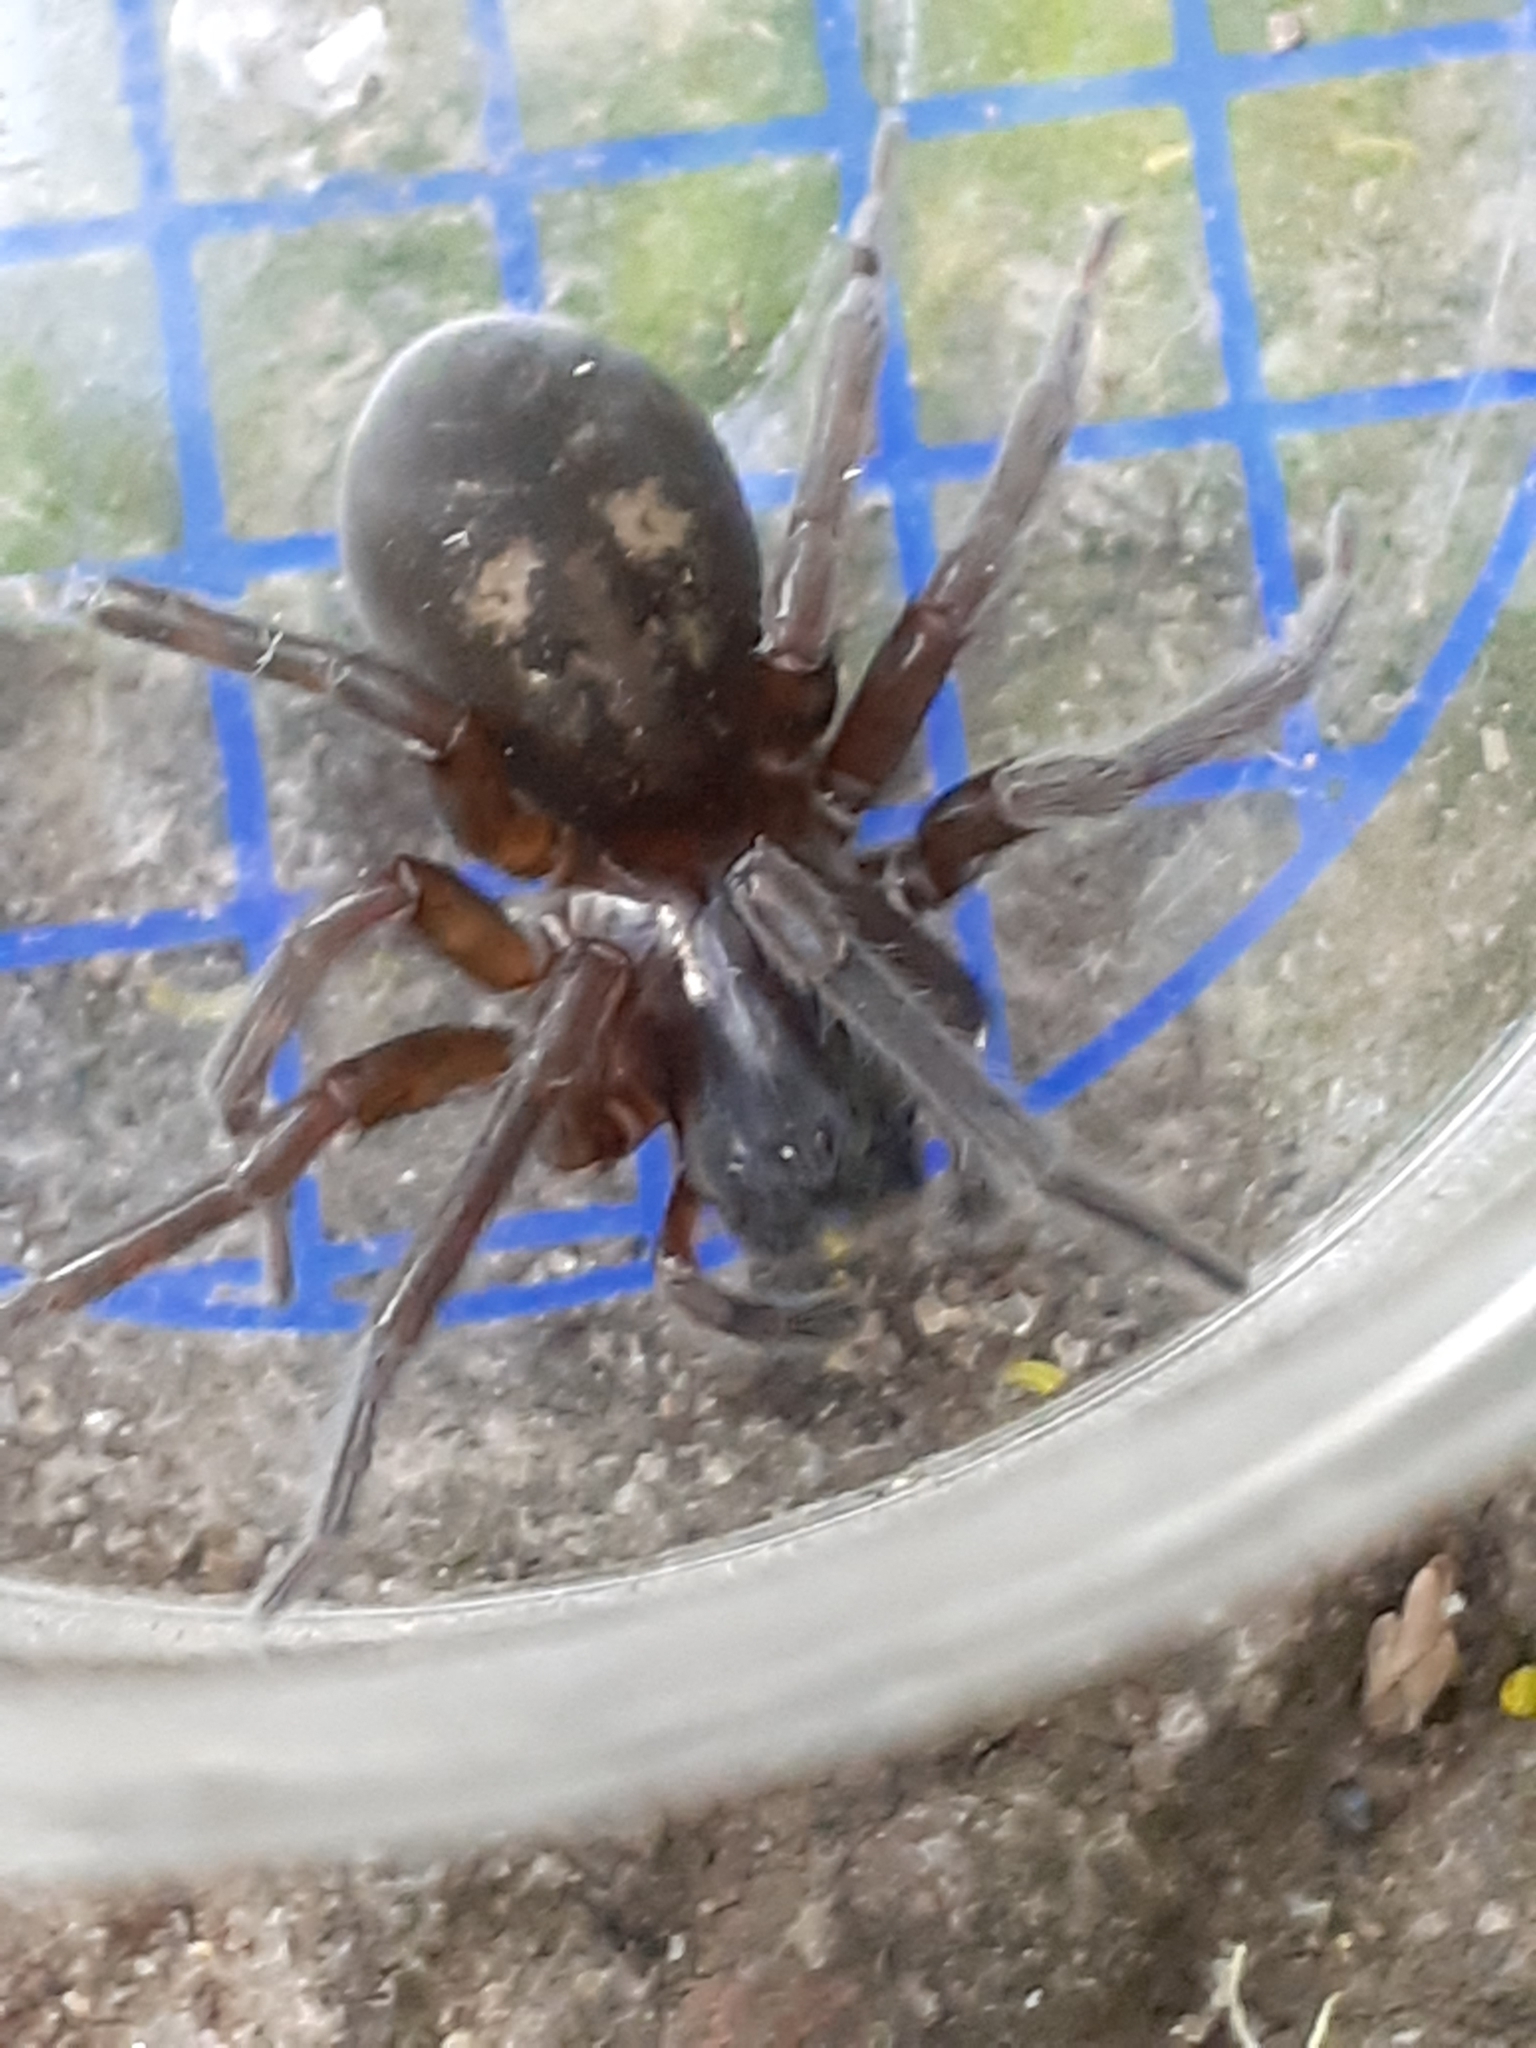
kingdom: Animalia
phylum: Arthropoda
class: Arachnida
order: Araneae
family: Amaurobiidae
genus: Amaurobius
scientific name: Amaurobius ferox
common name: Black laceweaver
